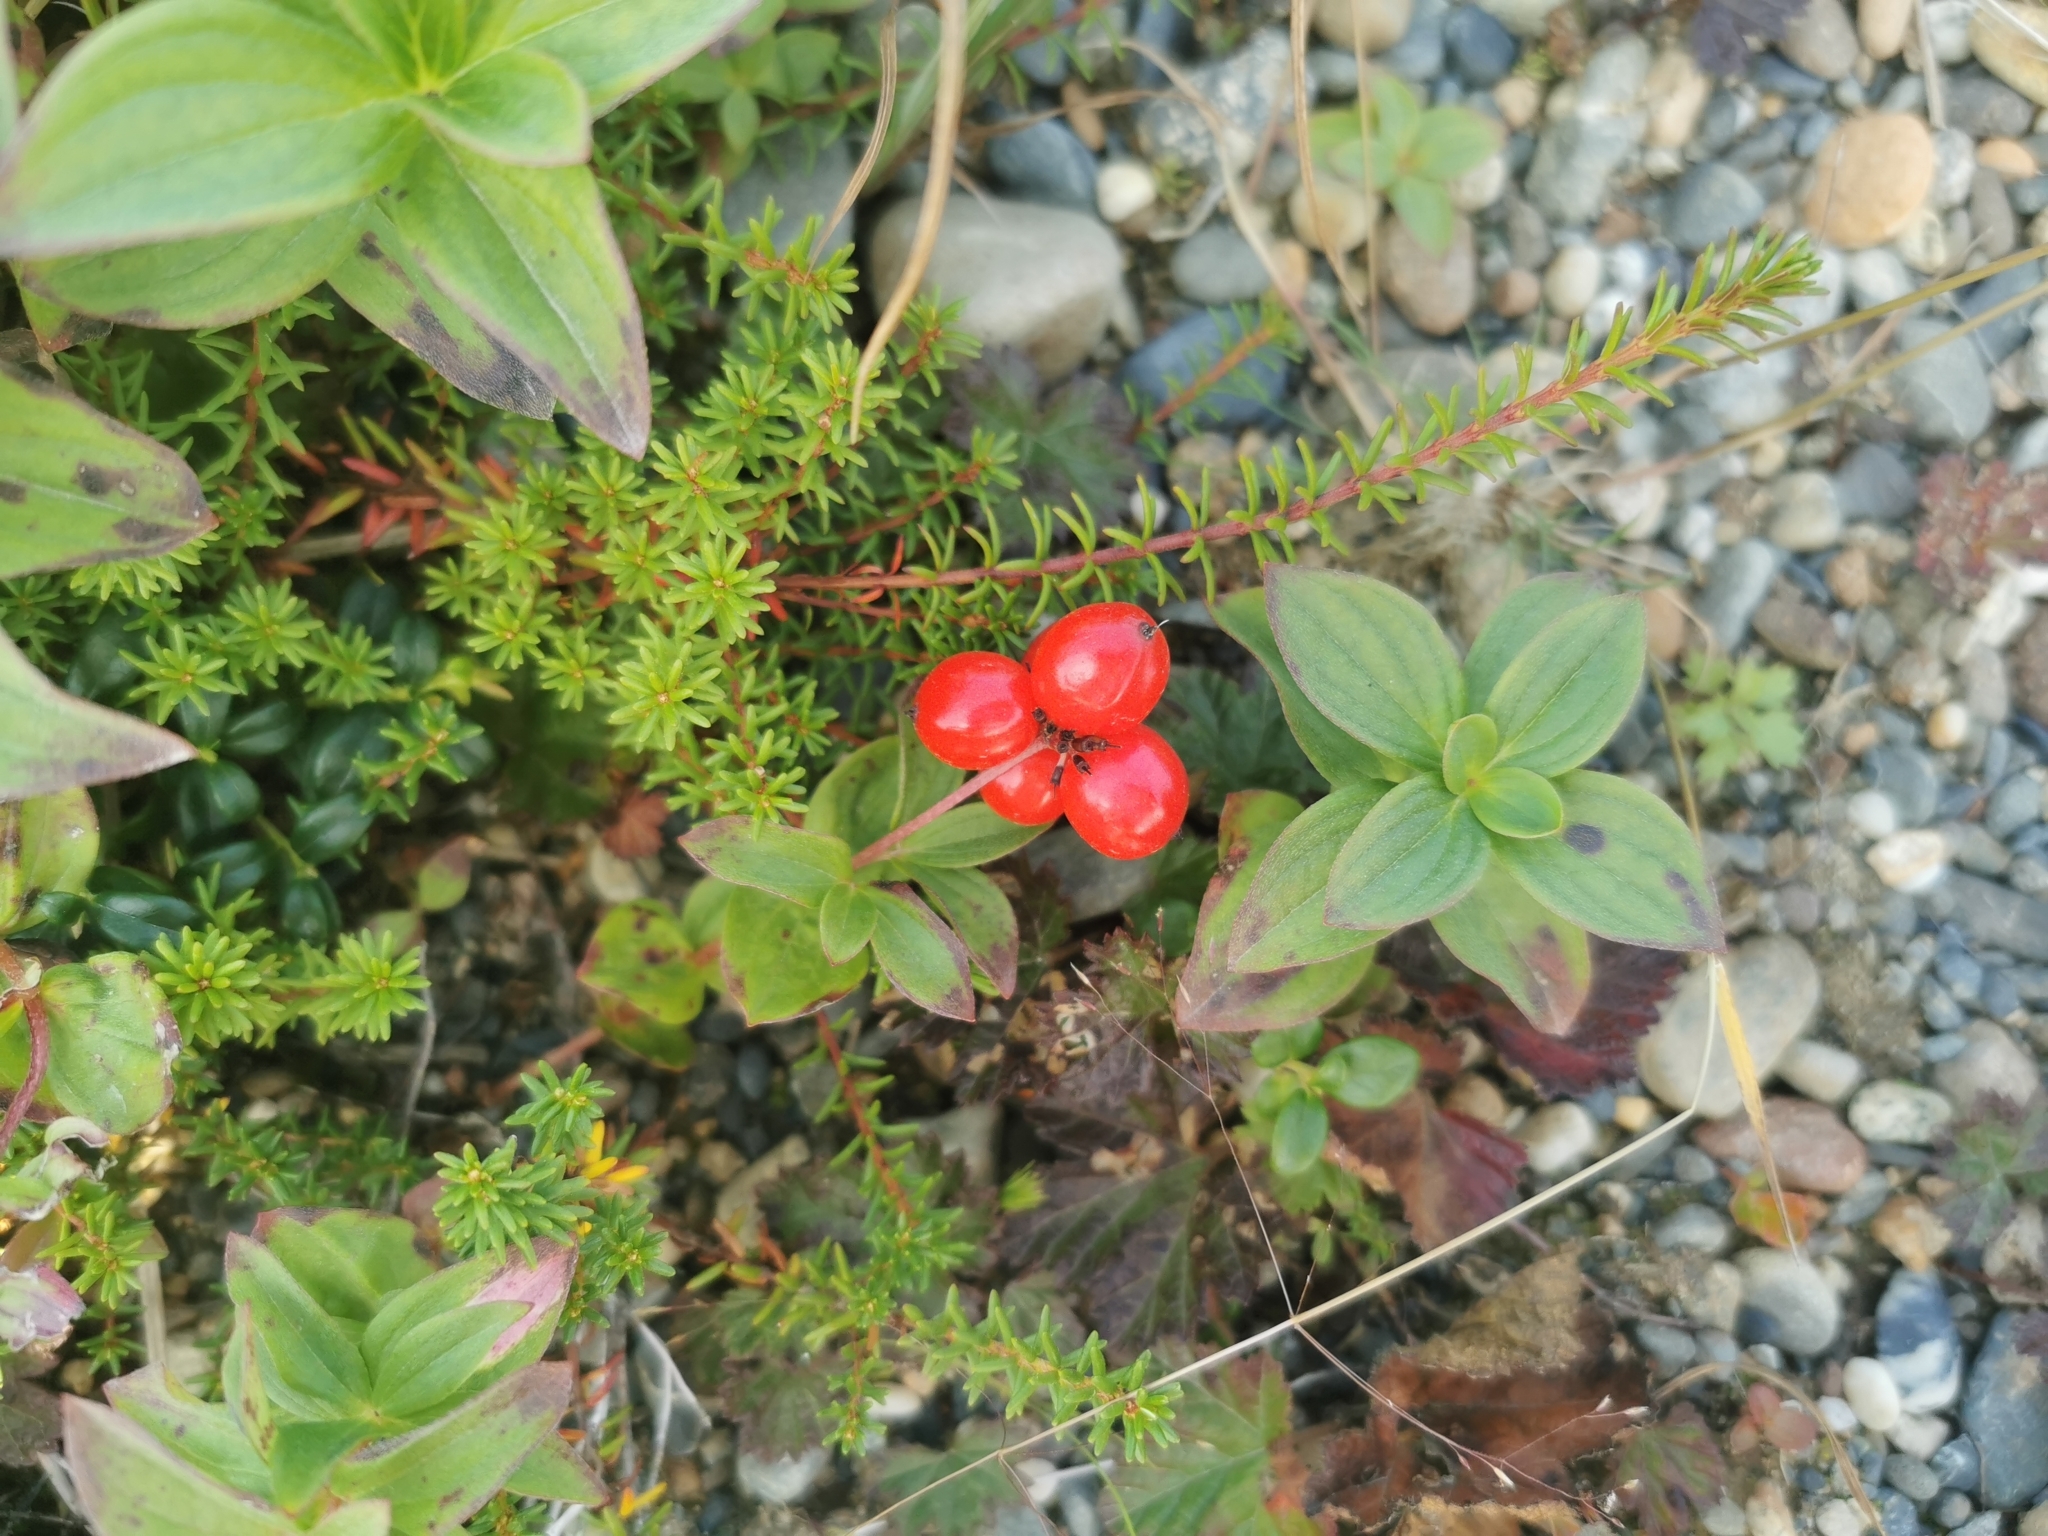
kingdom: Plantae
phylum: Tracheophyta
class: Magnoliopsida
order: Cornales
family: Cornaceae
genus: Cornus
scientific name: Cornus suecica
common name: Dwarf cornel
